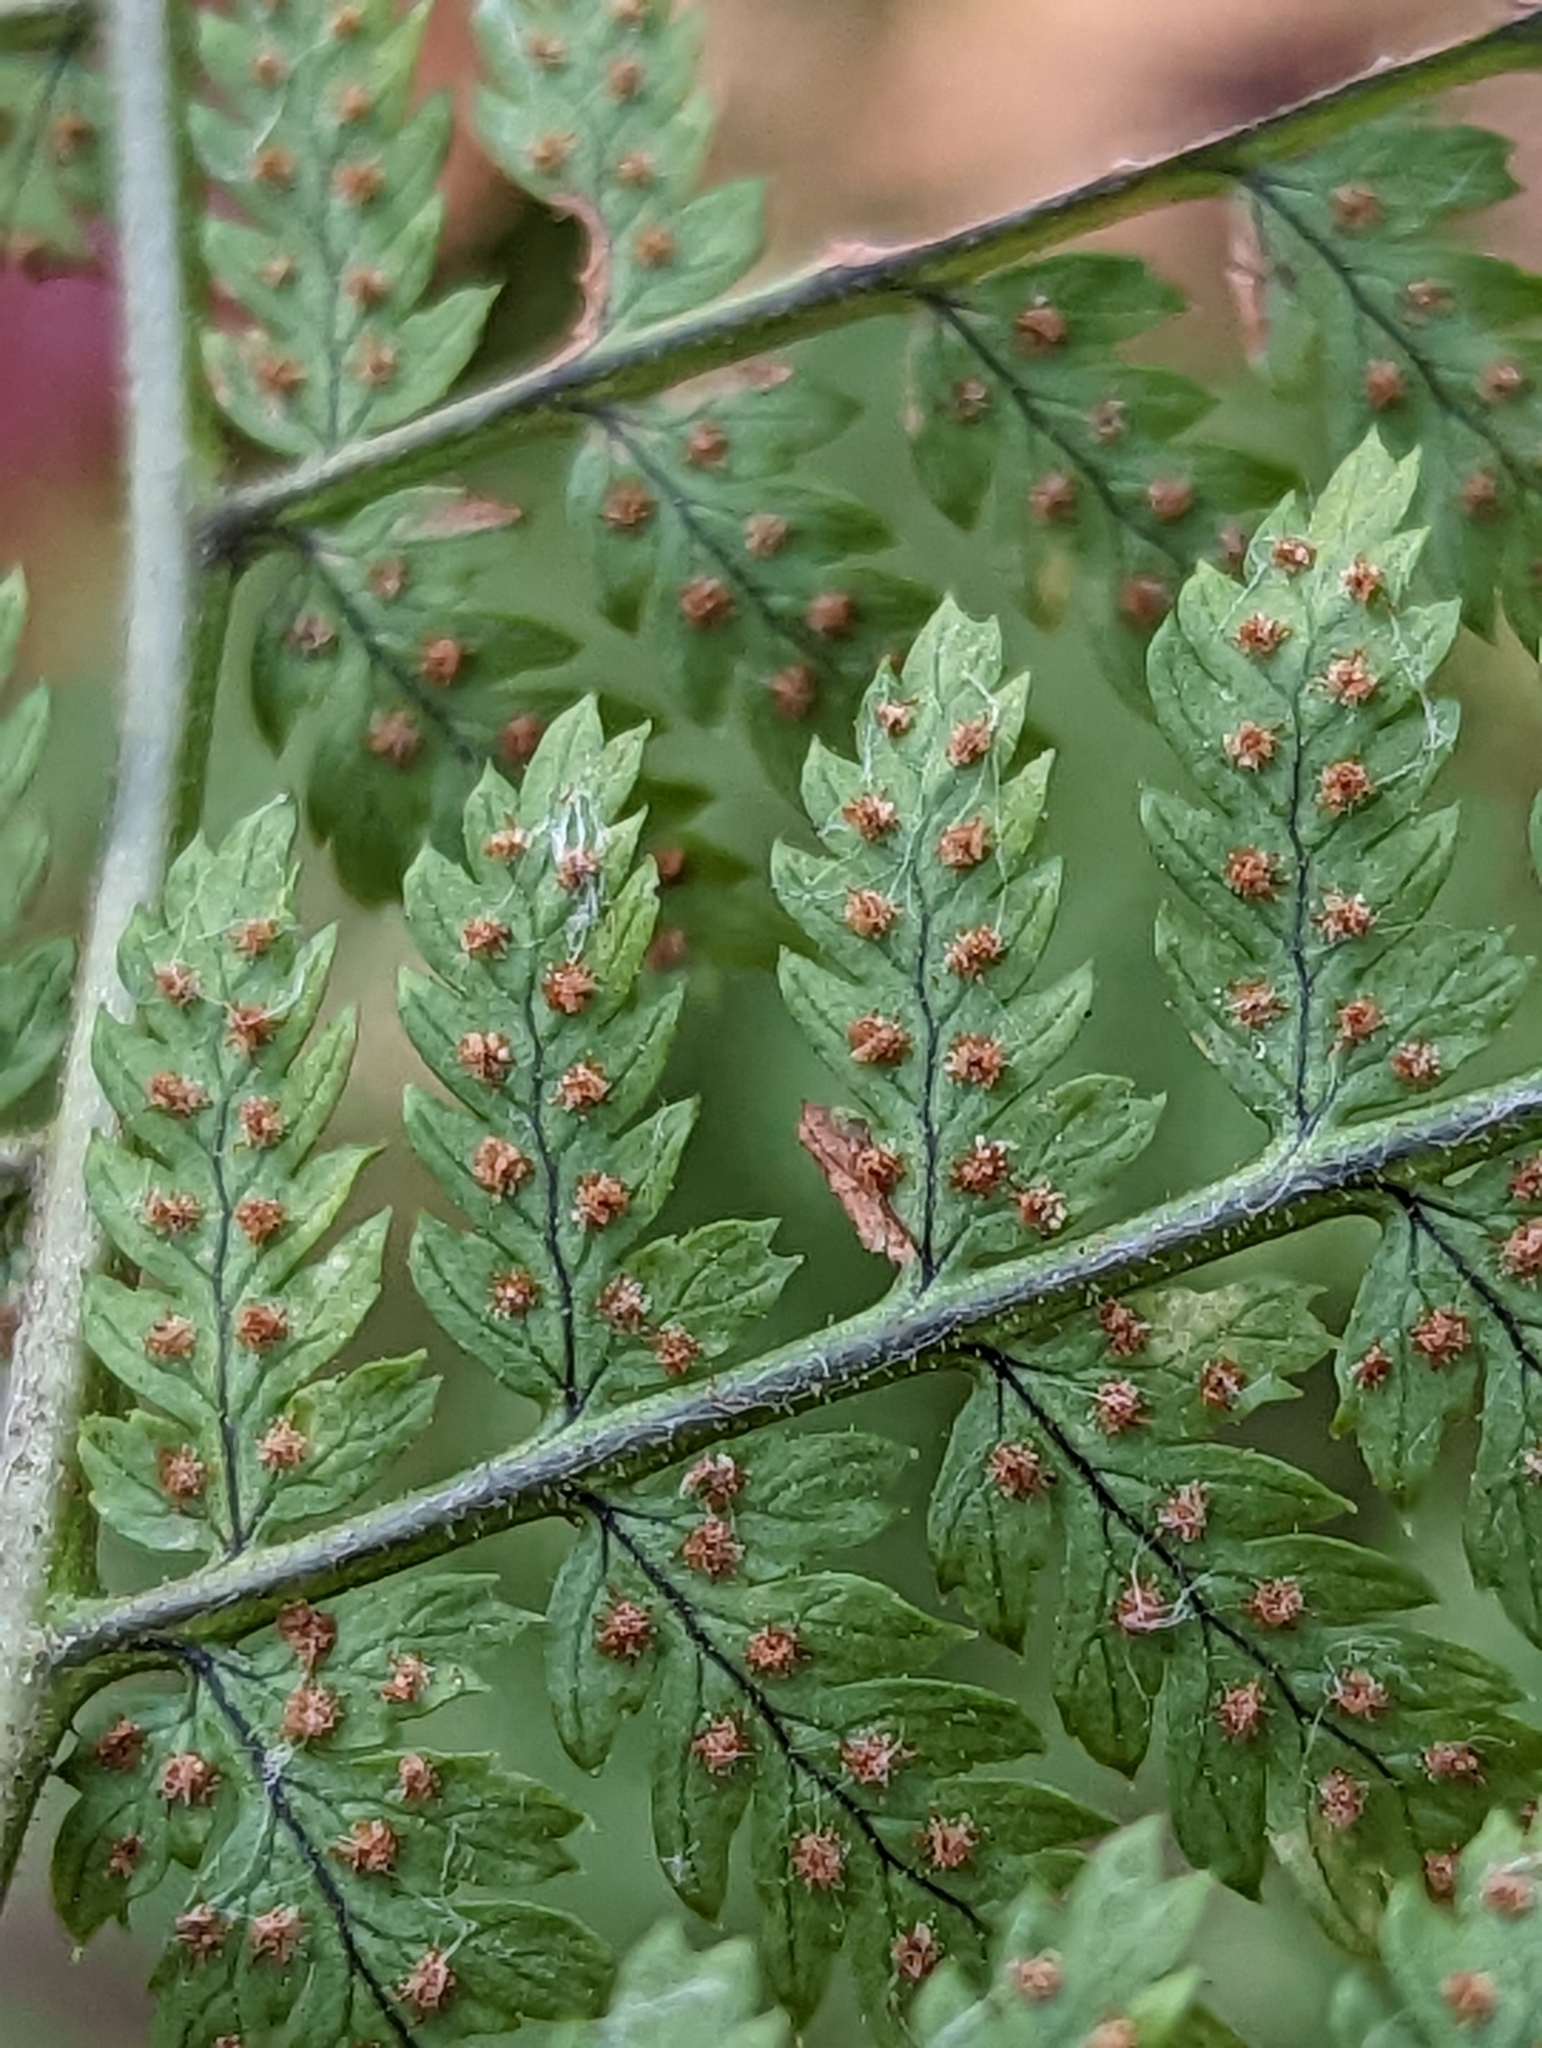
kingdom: Plantae
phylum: Tracheophyta
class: Polypodiopsida
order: Polypodiales
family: Dryopteridaceae
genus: Dryopteris
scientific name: Dryopteris intermedia
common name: Evergreen wood fern
